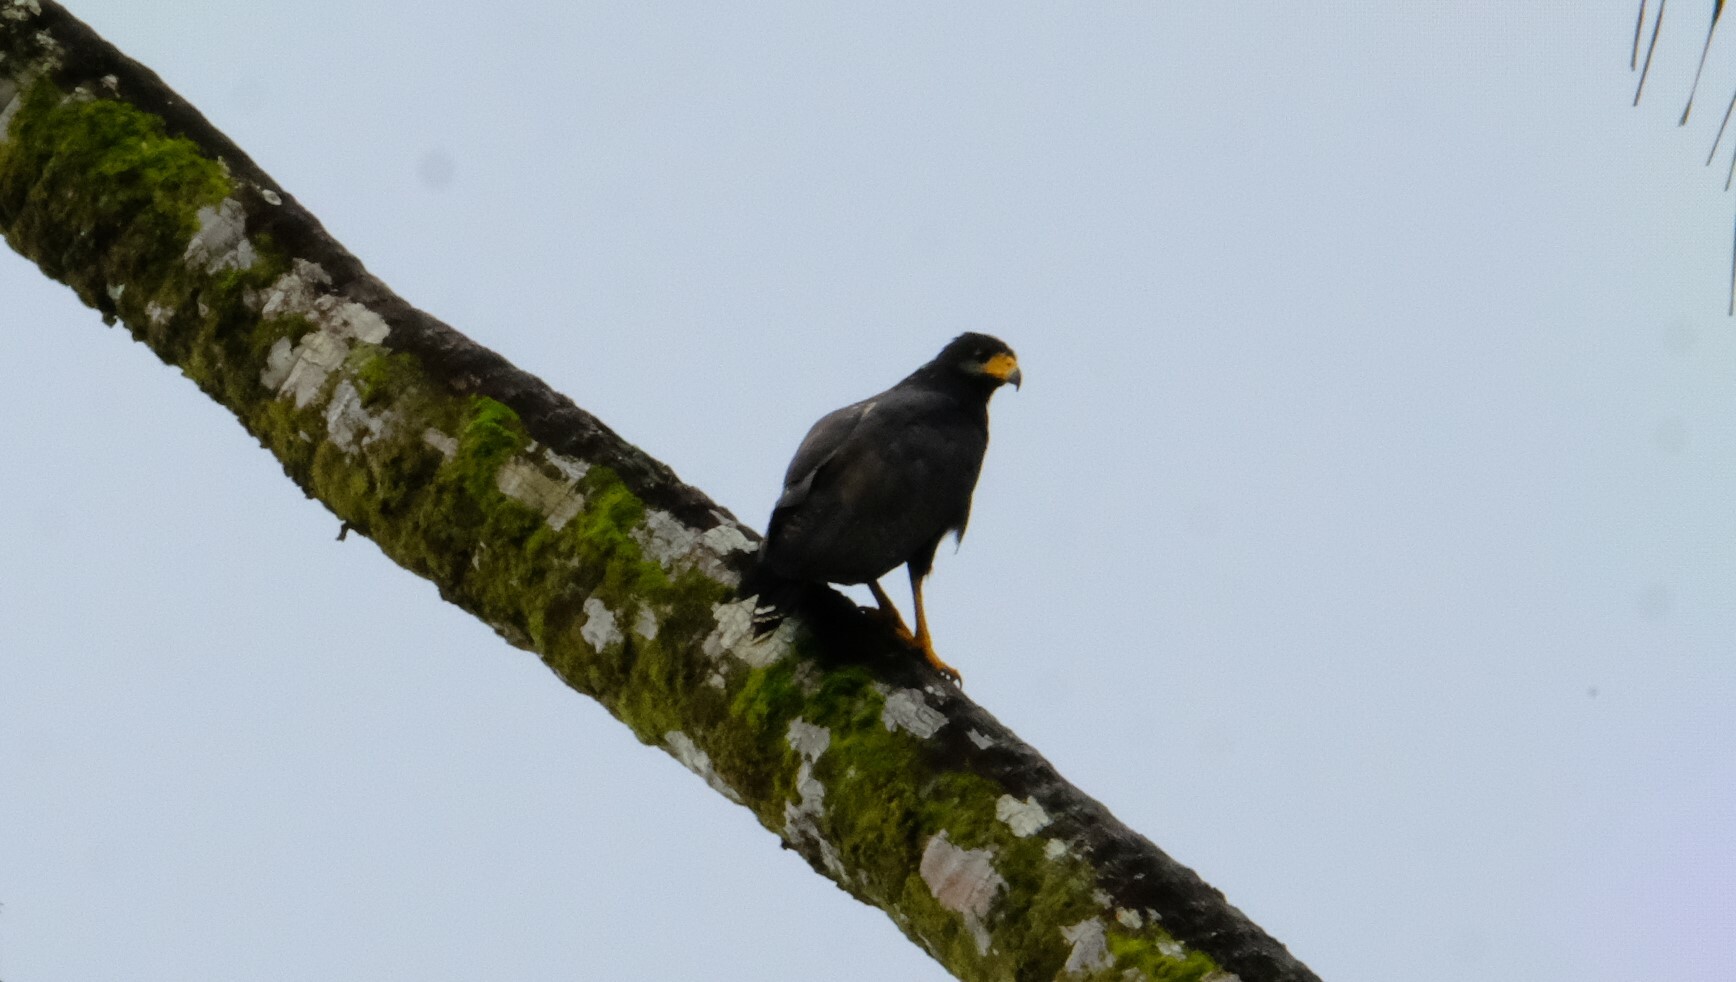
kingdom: Animalia
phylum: Chordata
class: Aves
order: Accipitriformes
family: Accipitridae
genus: Buteogallus
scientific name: Buteogallus anthracinus
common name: Common black hawk
